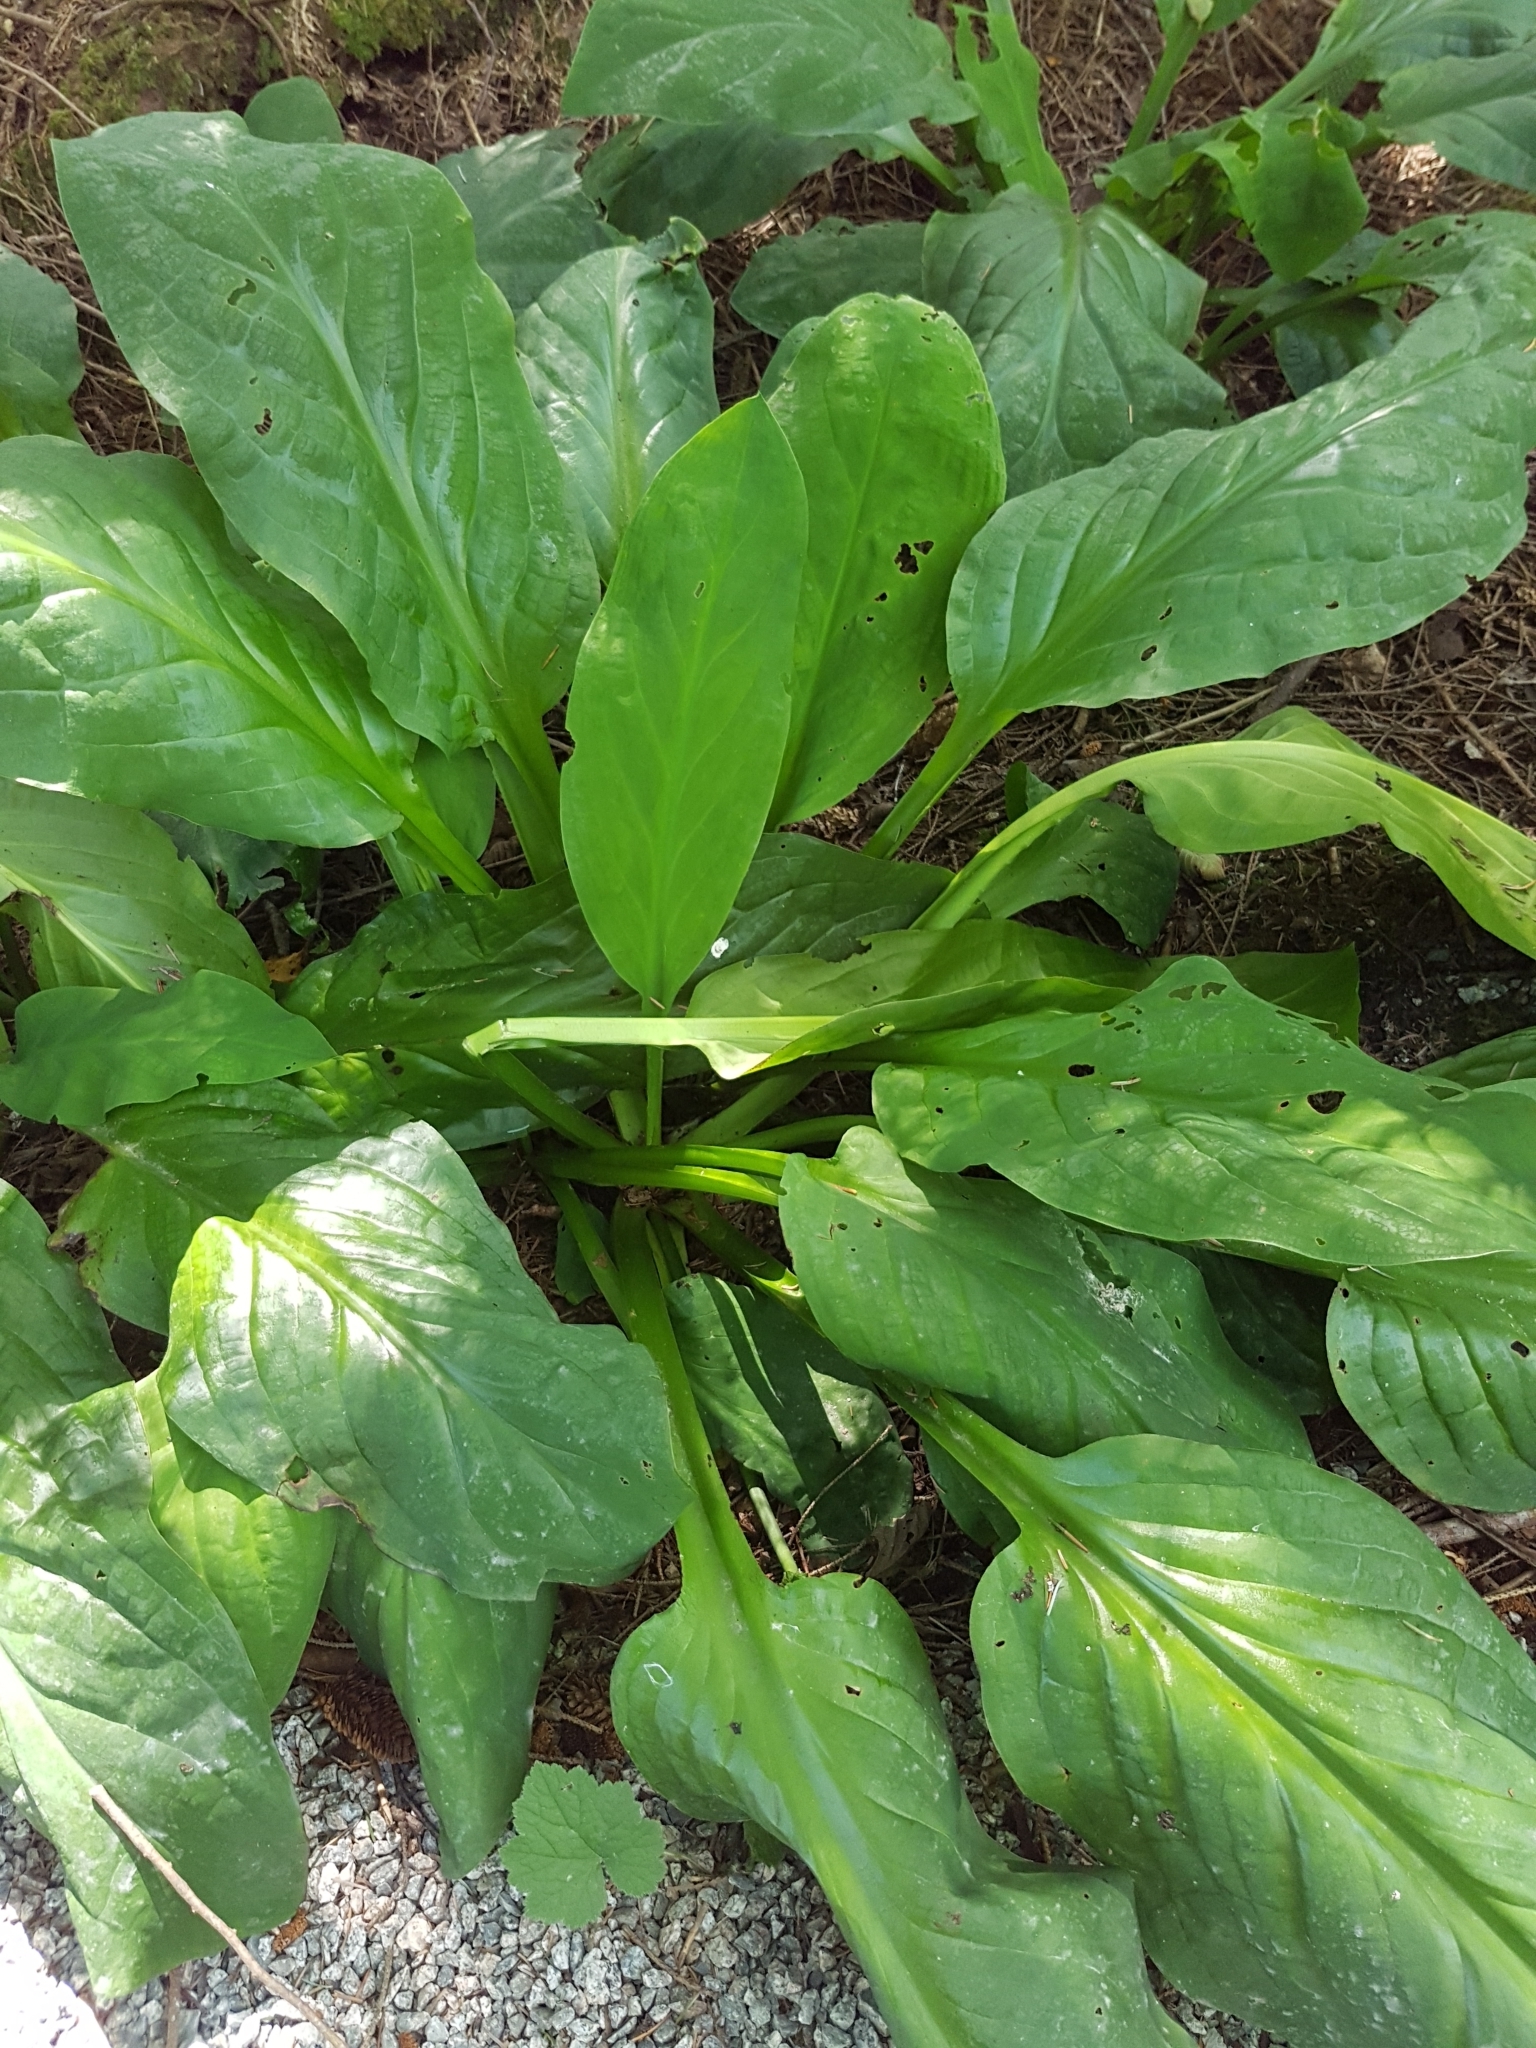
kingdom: Plantae
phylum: Tracheophyta
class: Liliopsida
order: Alismatales
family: Araceae
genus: Lysichiton
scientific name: Lysichiton americanus
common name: American skunk cabbage
